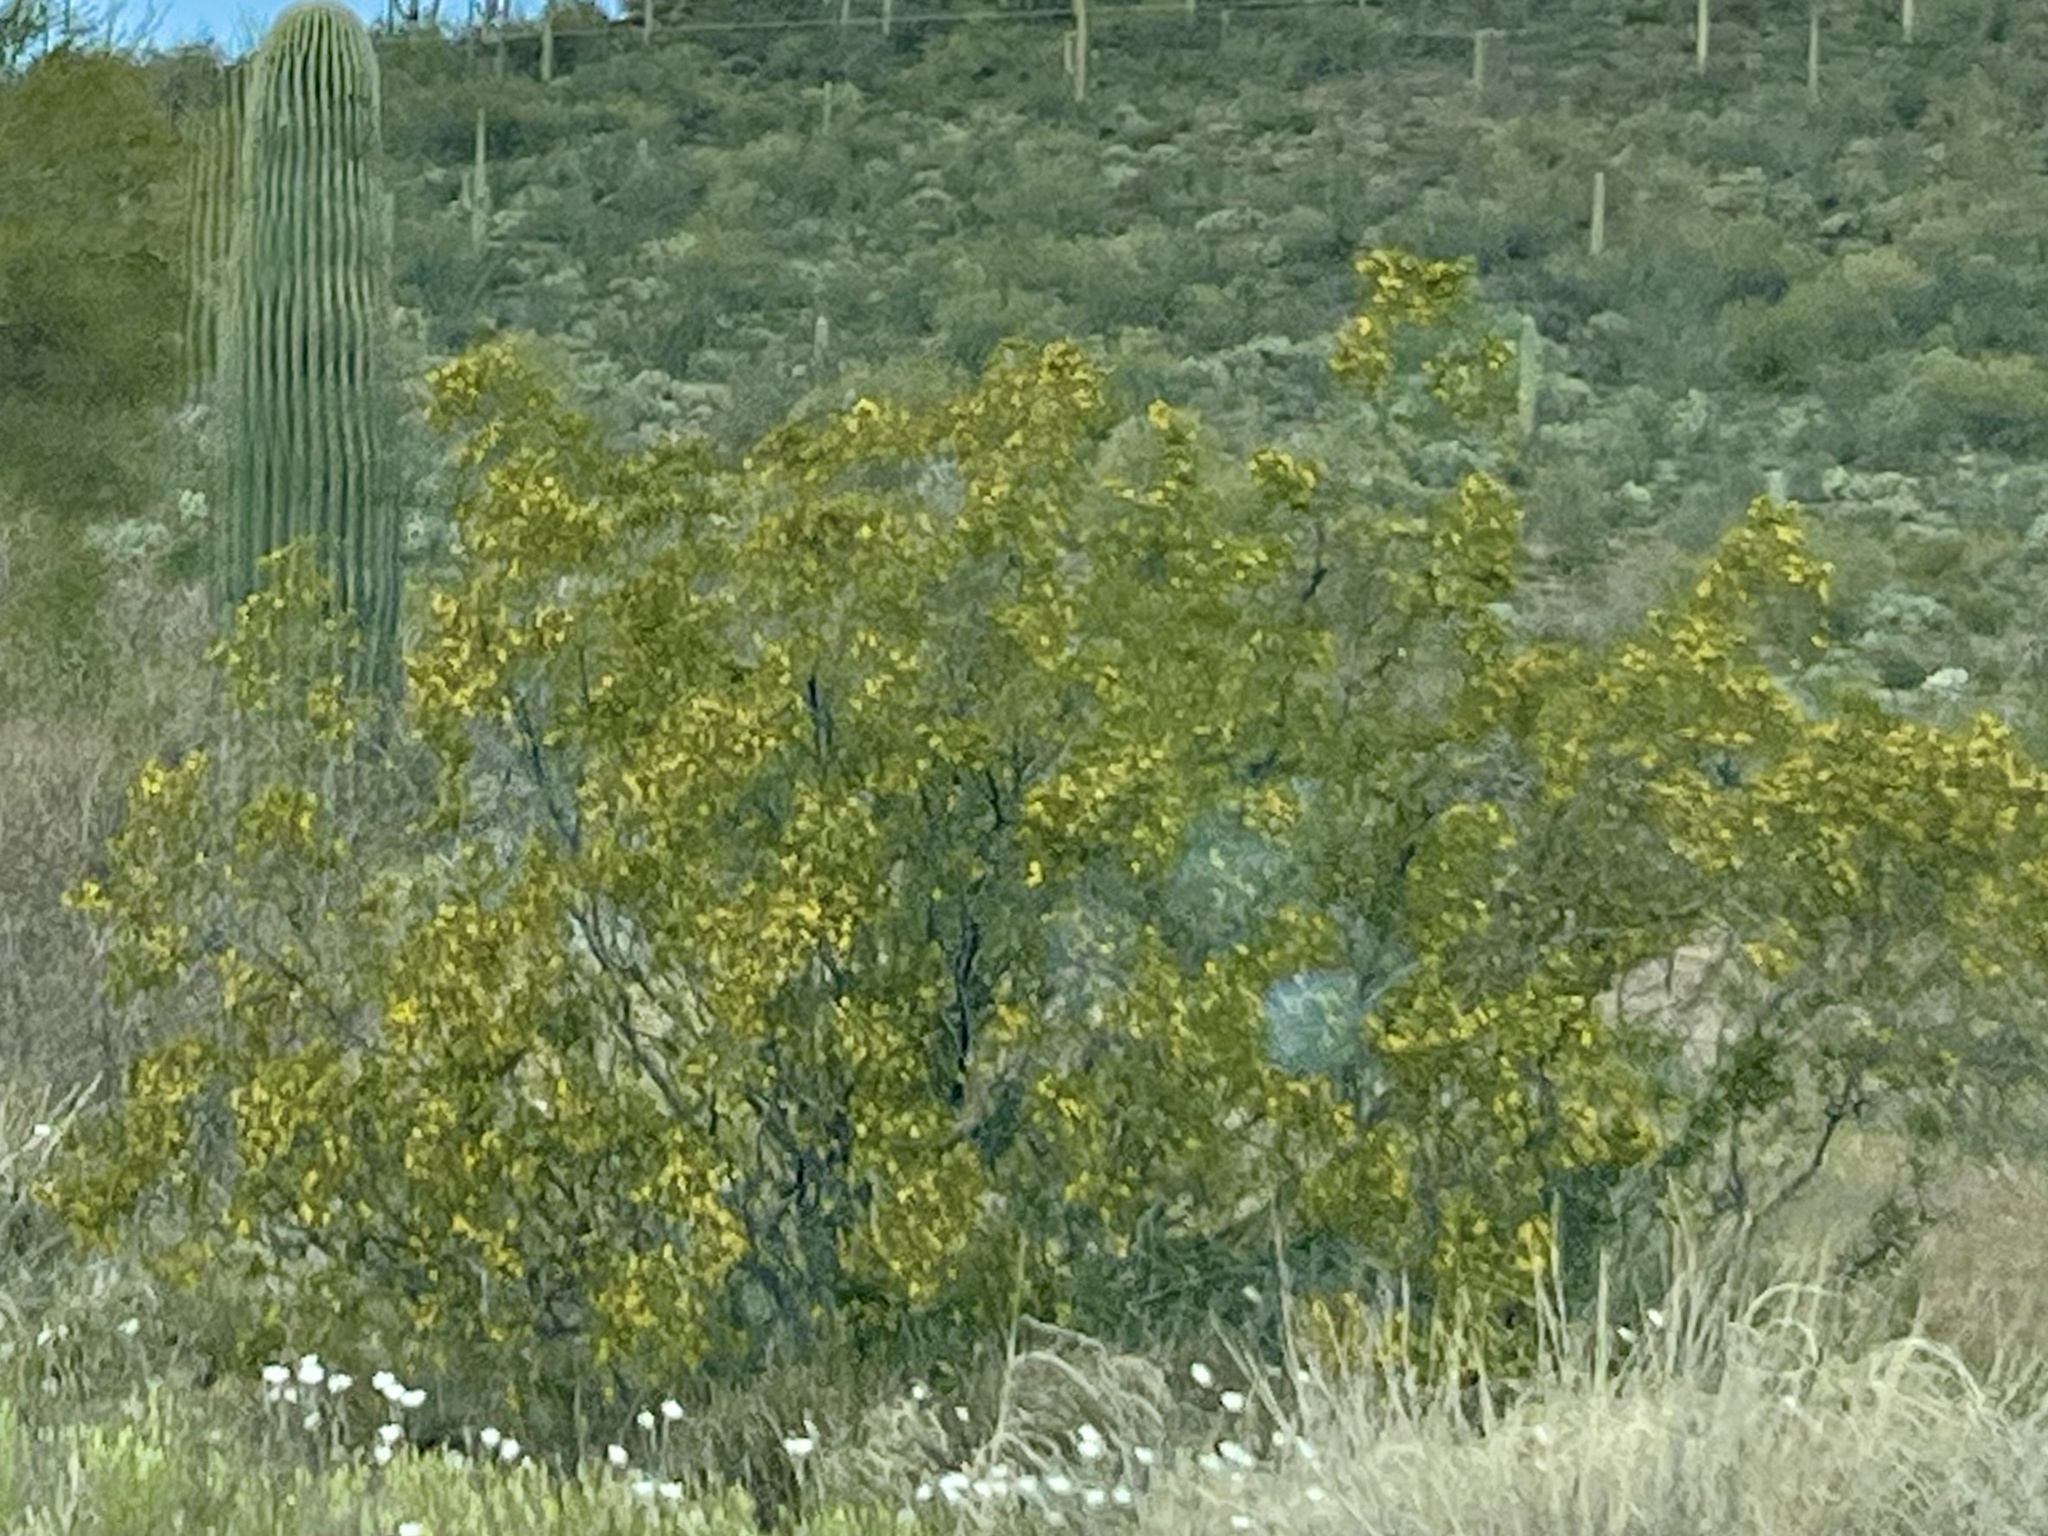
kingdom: Plantae
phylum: Tracheophyta
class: Magnoliopsida
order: Zygophyllales
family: Zygophyllaceae
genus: Larrea
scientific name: Larrea tridentata
